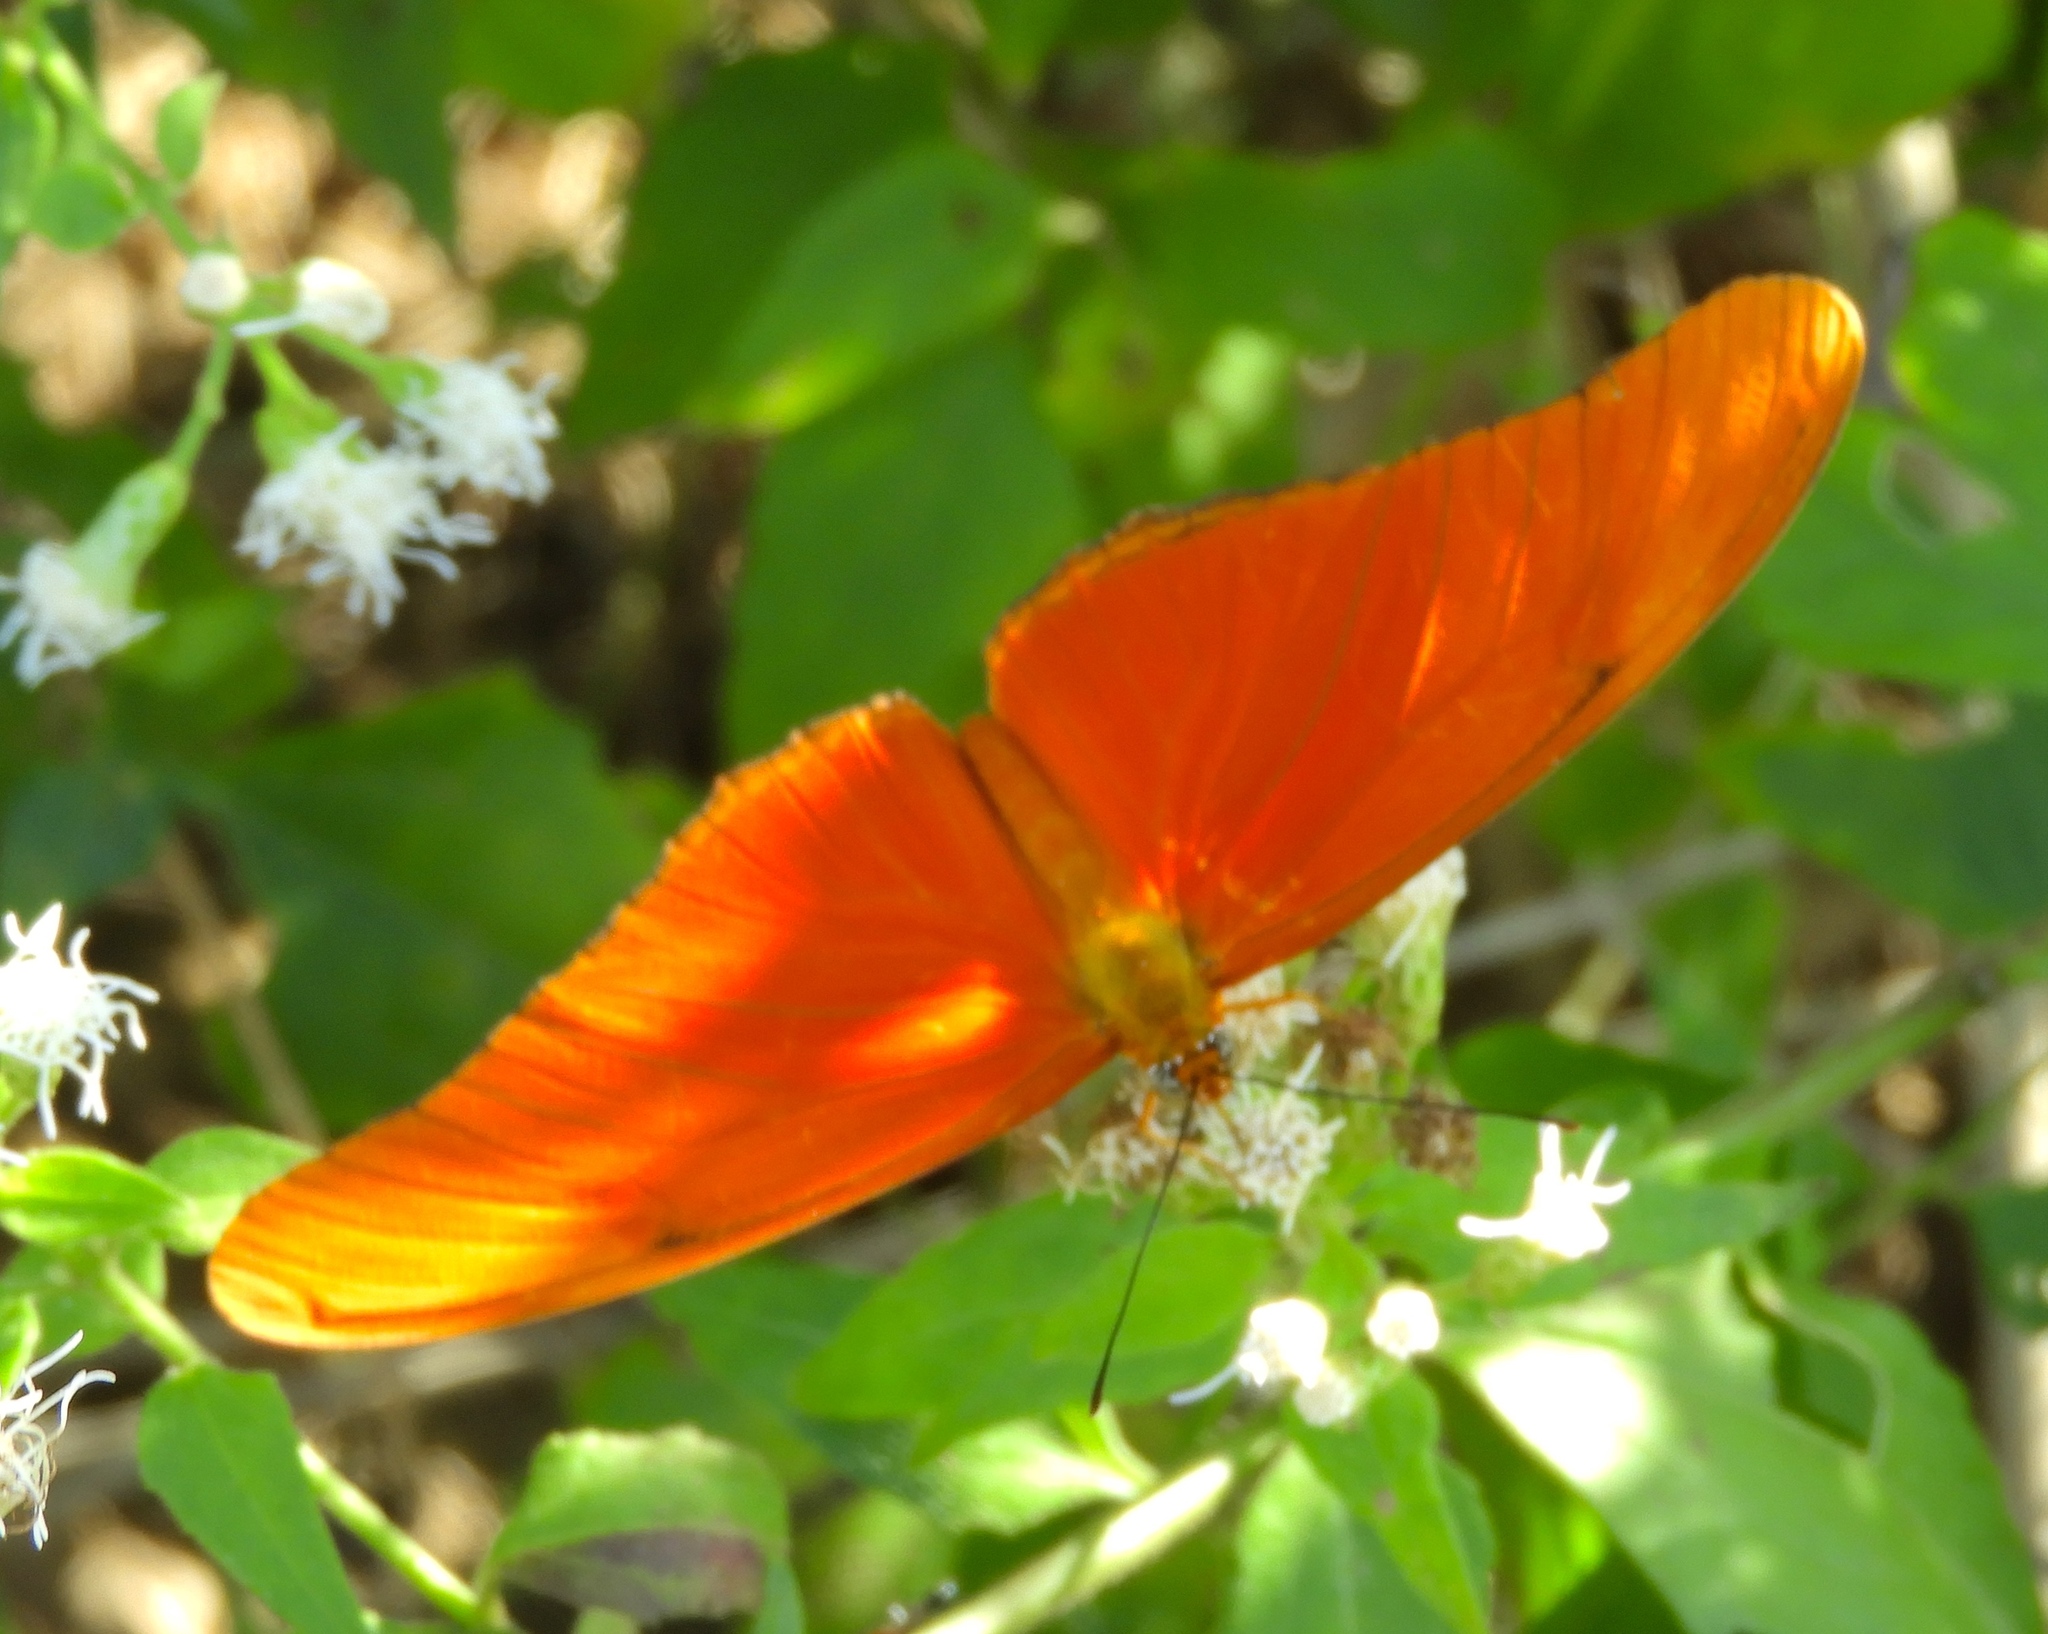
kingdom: Animalia
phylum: Arthropoda
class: Insecta
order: Lepidoptera
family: Nymphalidae
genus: Dryas
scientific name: Dryas iulia
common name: Flambeau
